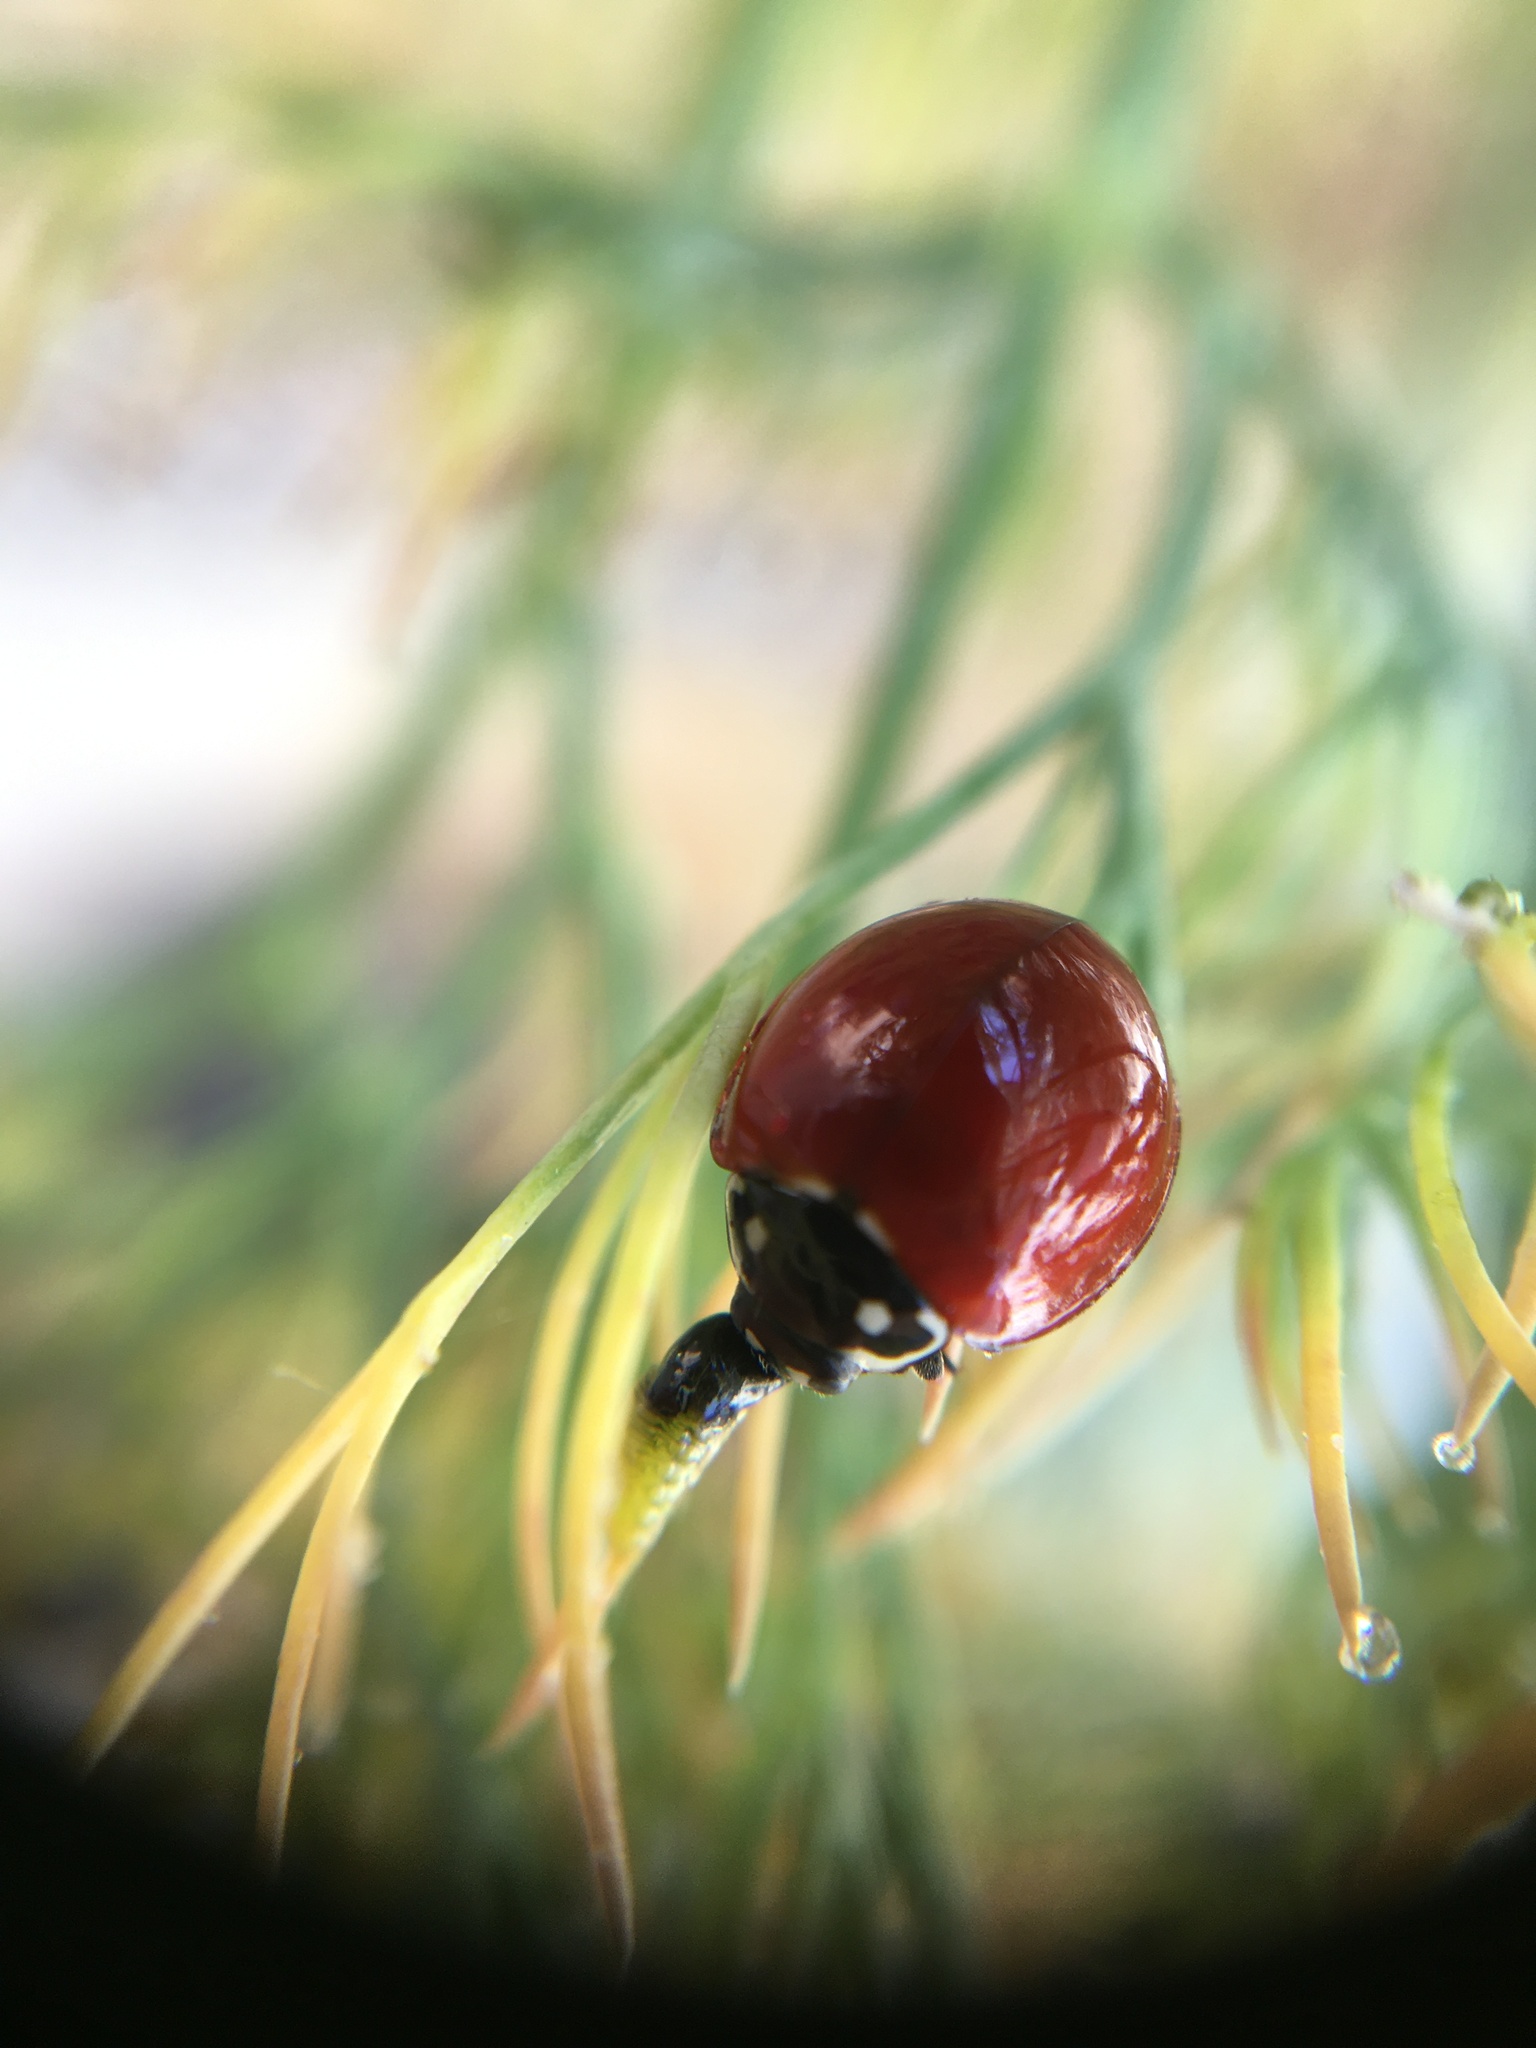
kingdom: Animalia
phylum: Arthropoda
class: Insecta
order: Coleoptera
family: Coccinellidae
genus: Cycloneda
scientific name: Cycloneda sanguinea
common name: Ladybird beetle
